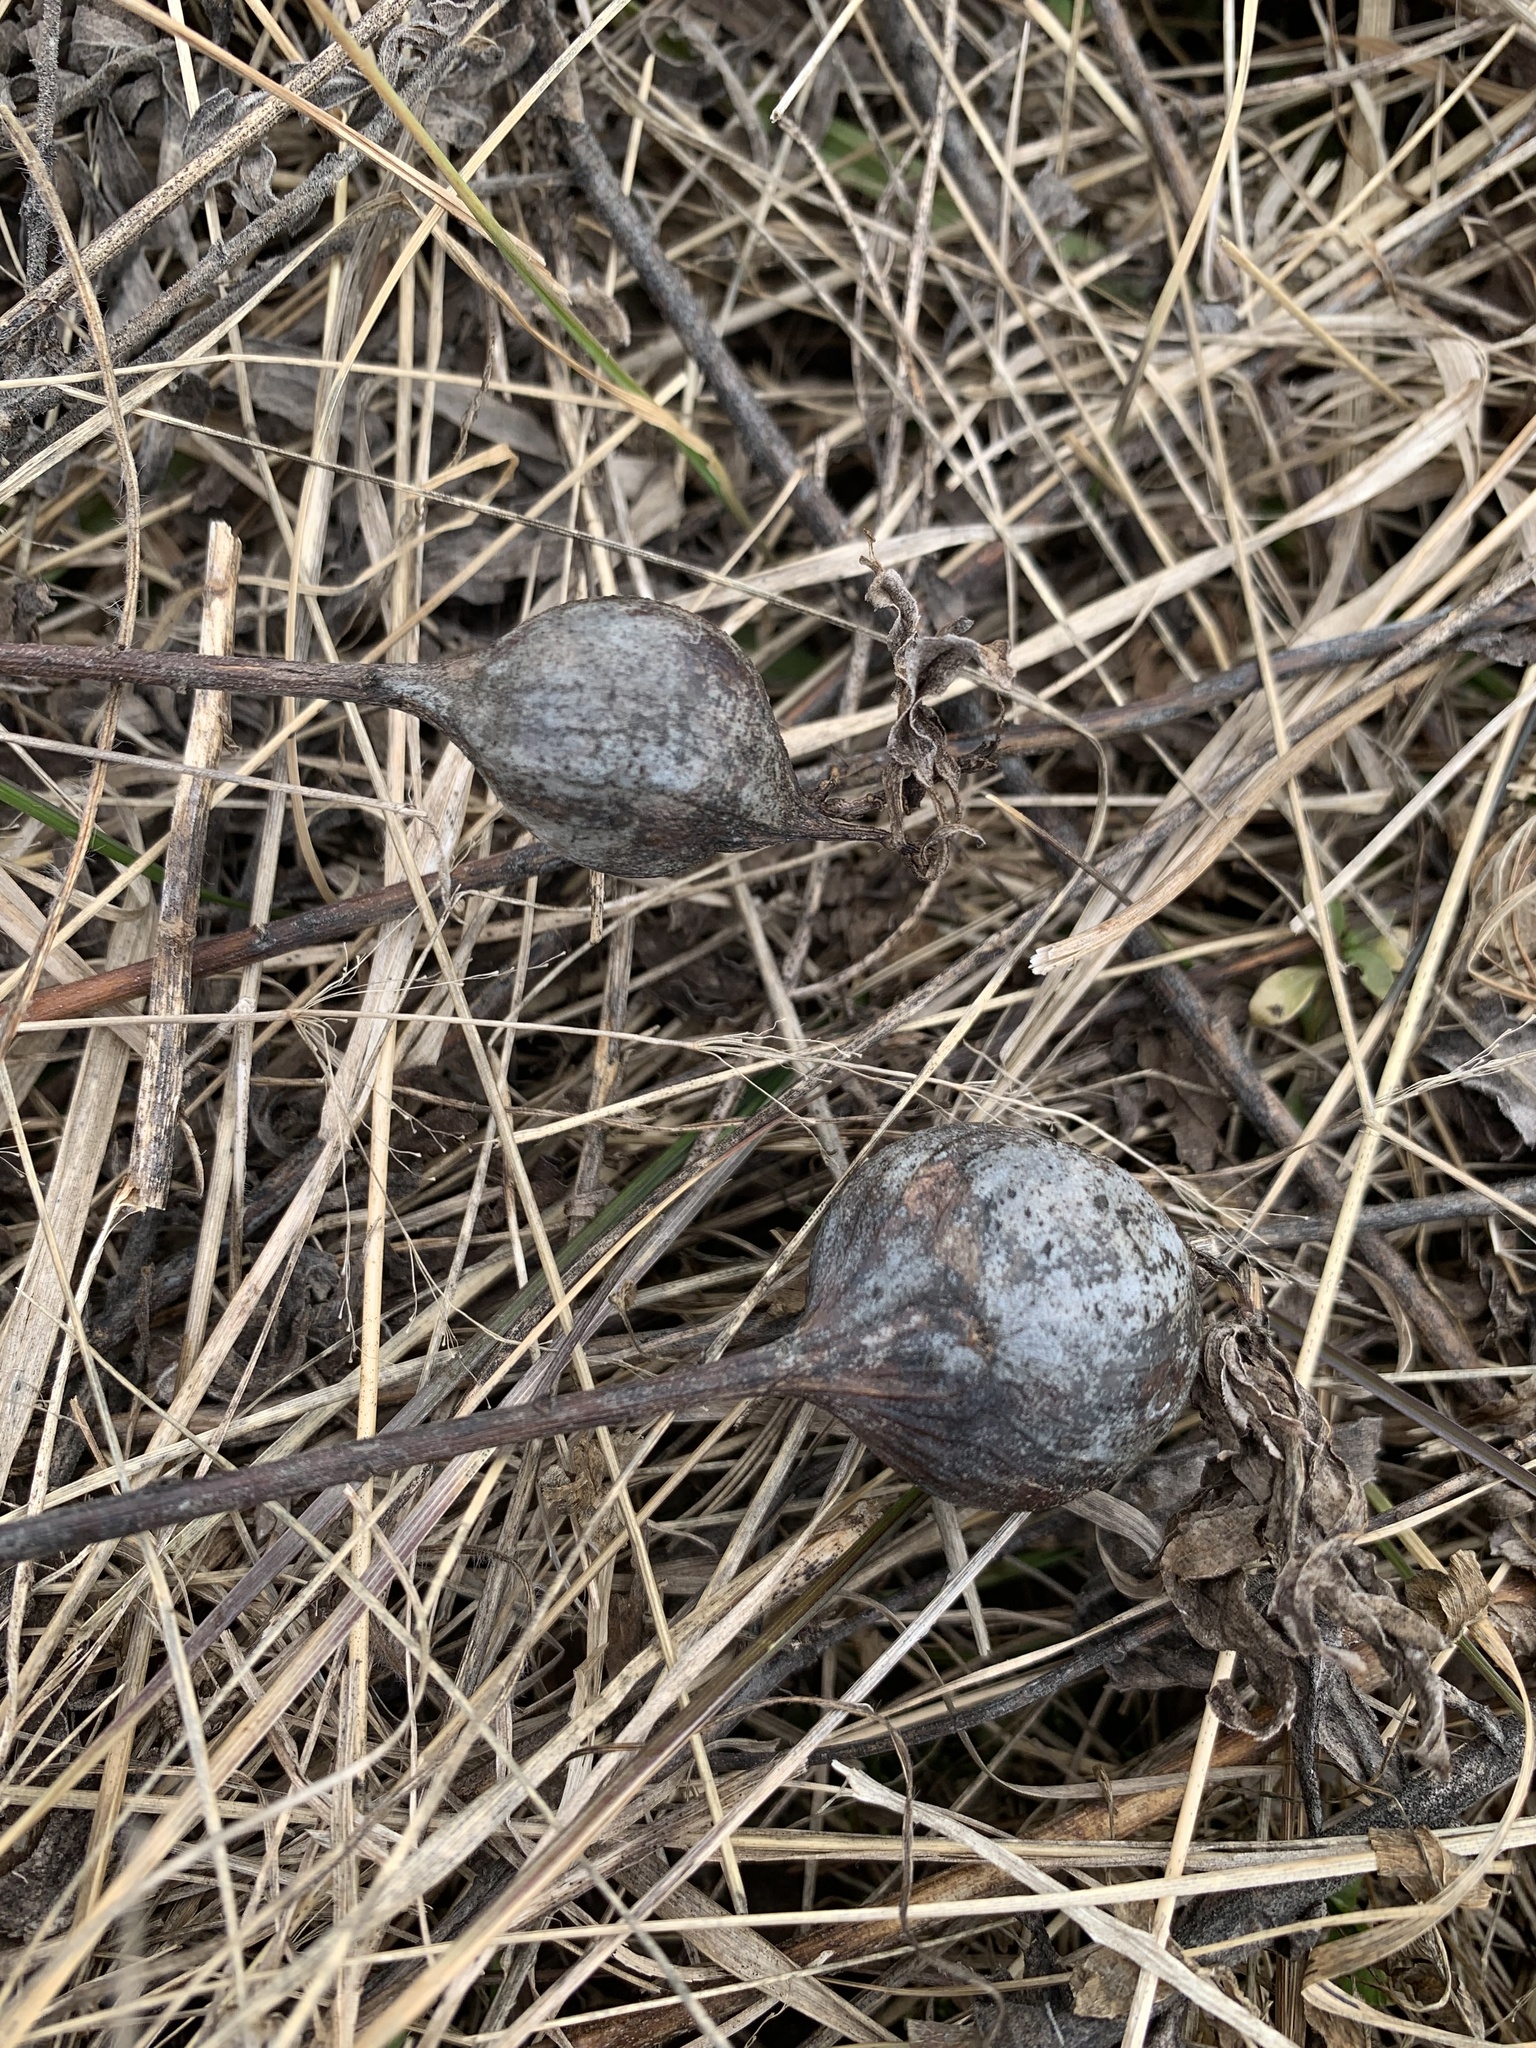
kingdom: Animalia
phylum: Arthropoda
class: Insecta
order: Diptera
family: Tephritidae
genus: Eurosta
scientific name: Eurosta solidaginis
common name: Goldenrod gall fly
